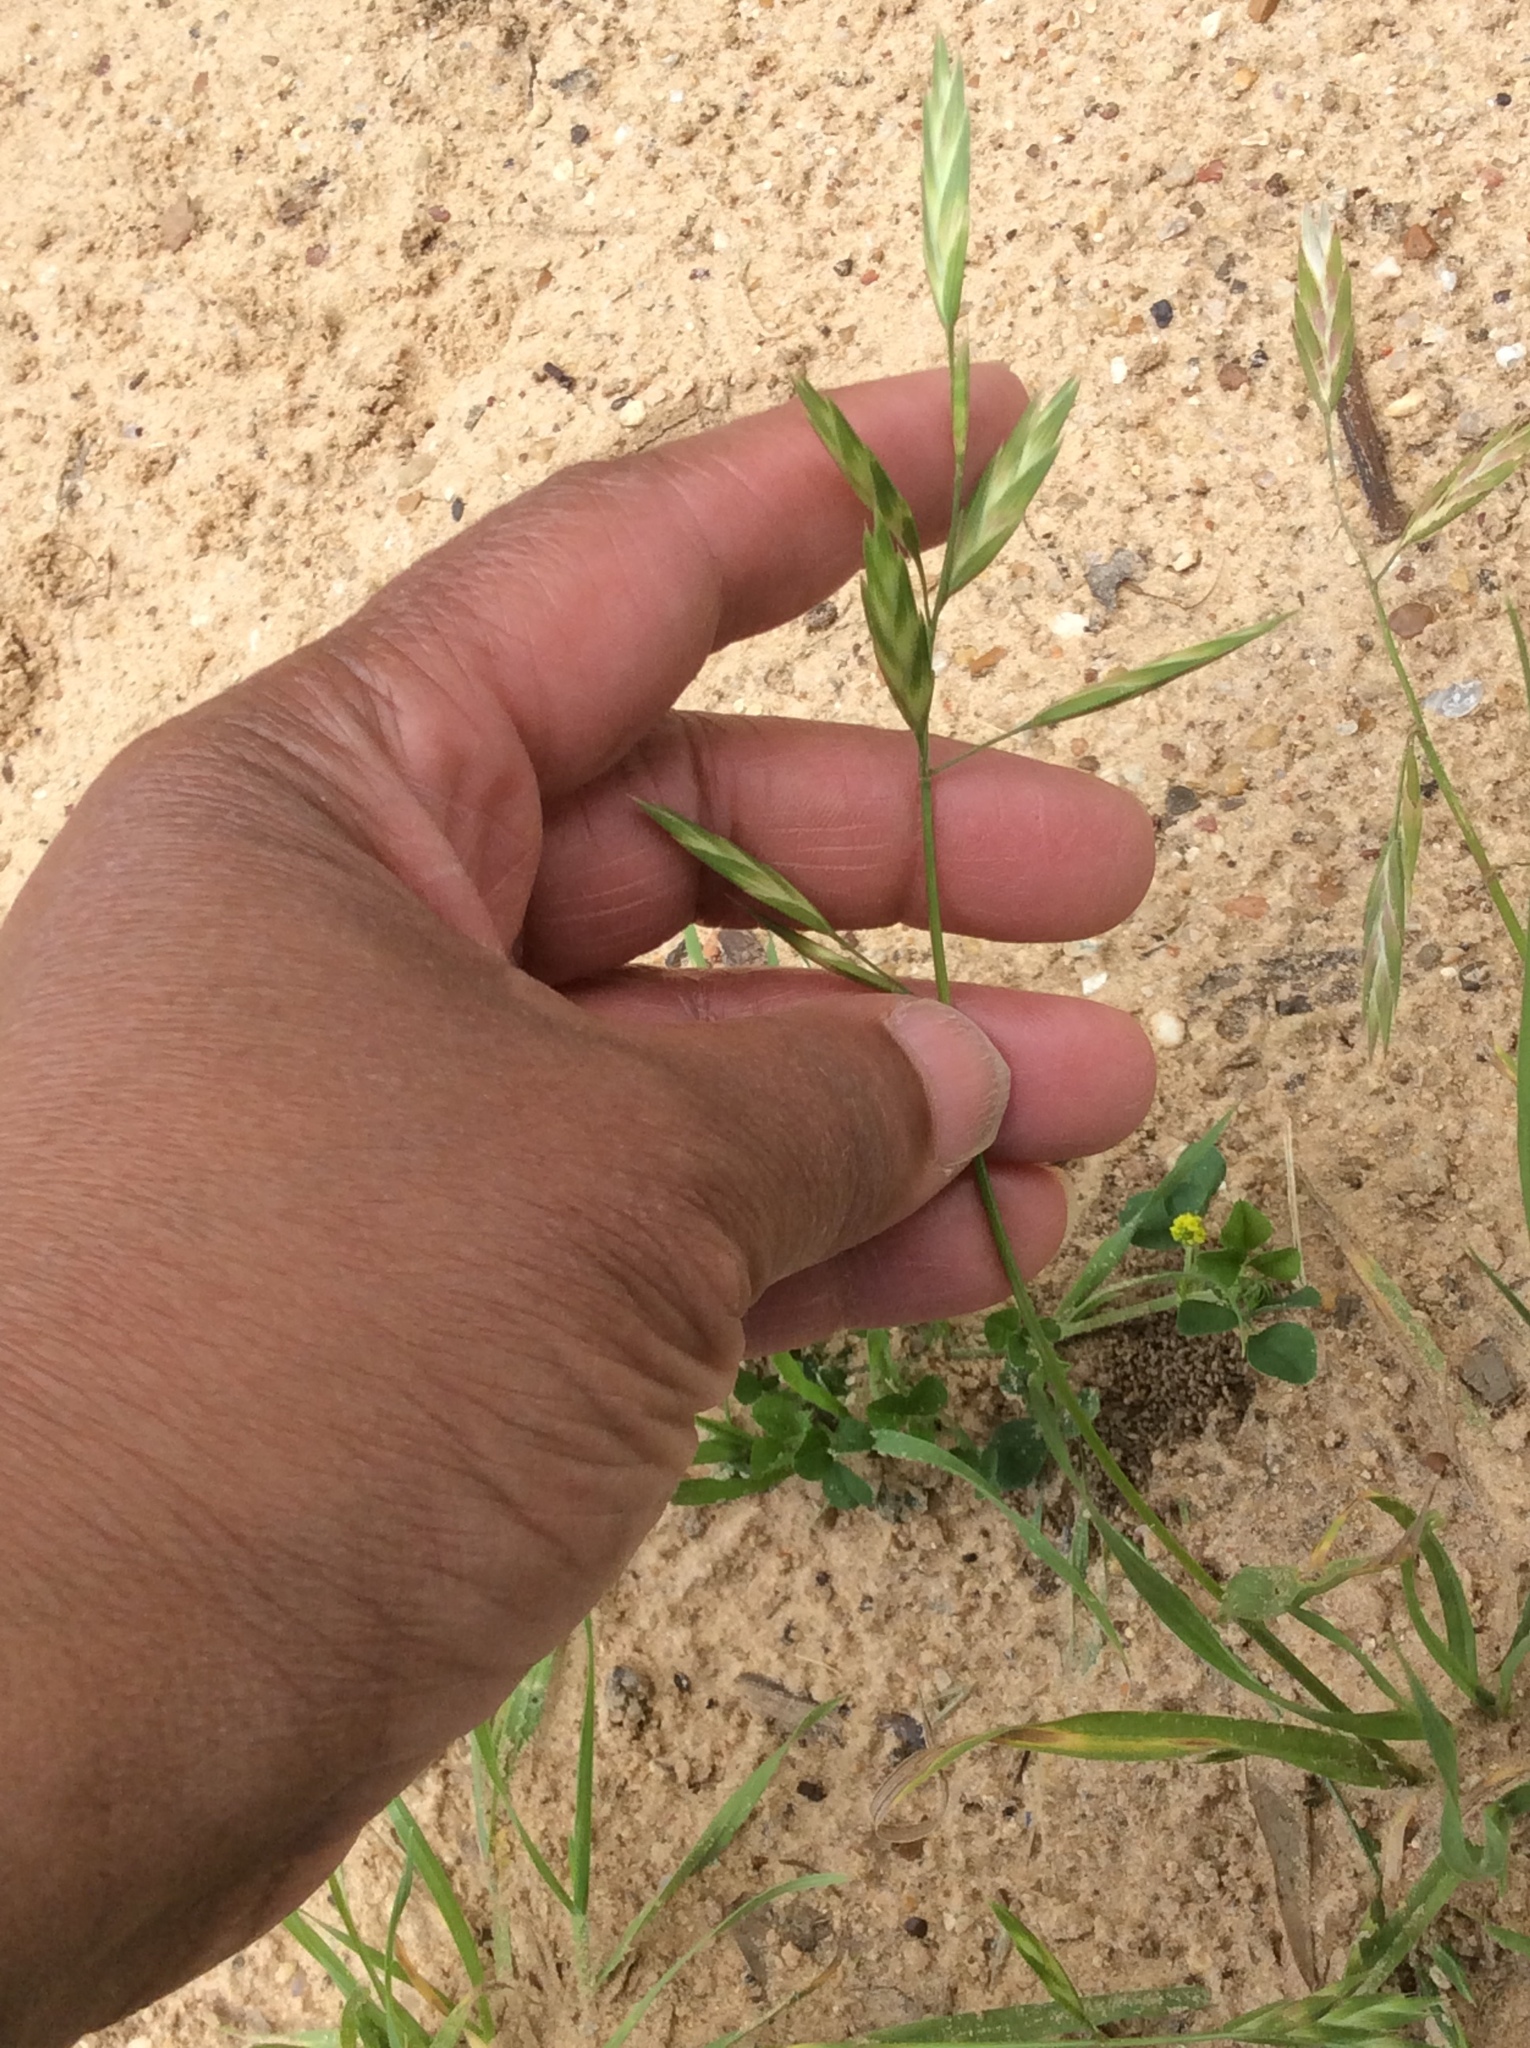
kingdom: Plantae
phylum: Tracheophyta
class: Liliopsida
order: Poales
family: Poaceae
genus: Bromus
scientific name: Bromus catharticus
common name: Rescuegrass
